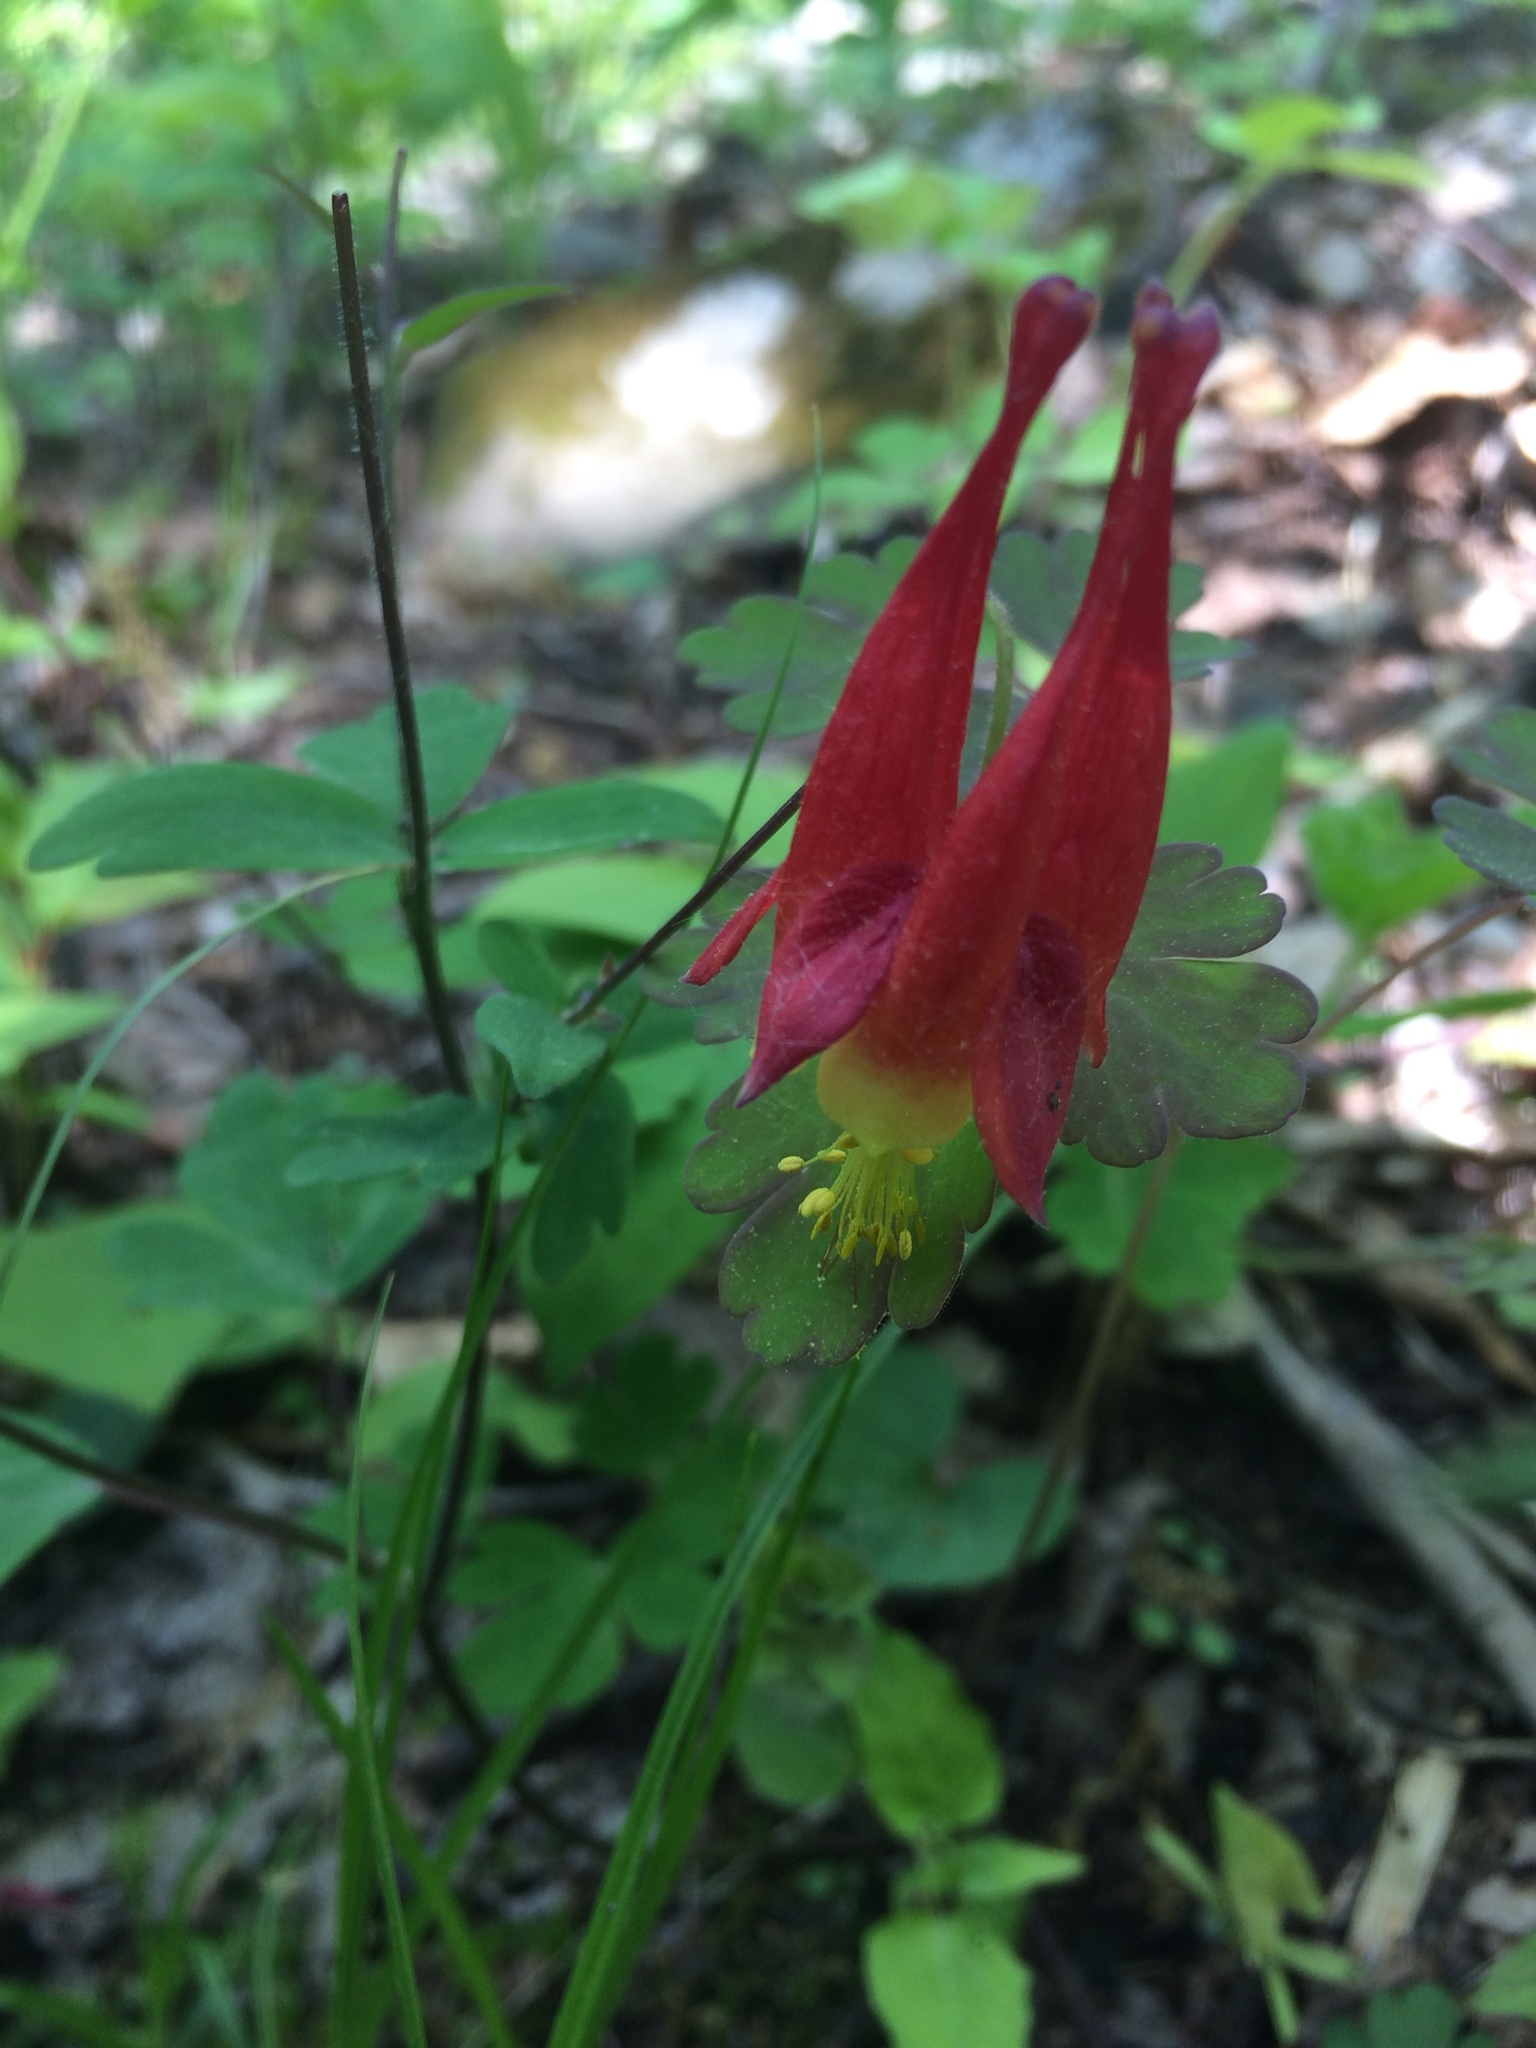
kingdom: Plantae
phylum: Tracheophyta
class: Magnoliopsida
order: Ranunculales
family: Ranunculaceae
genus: Aquilegia
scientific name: Aquilegia canadensis
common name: American columbine
